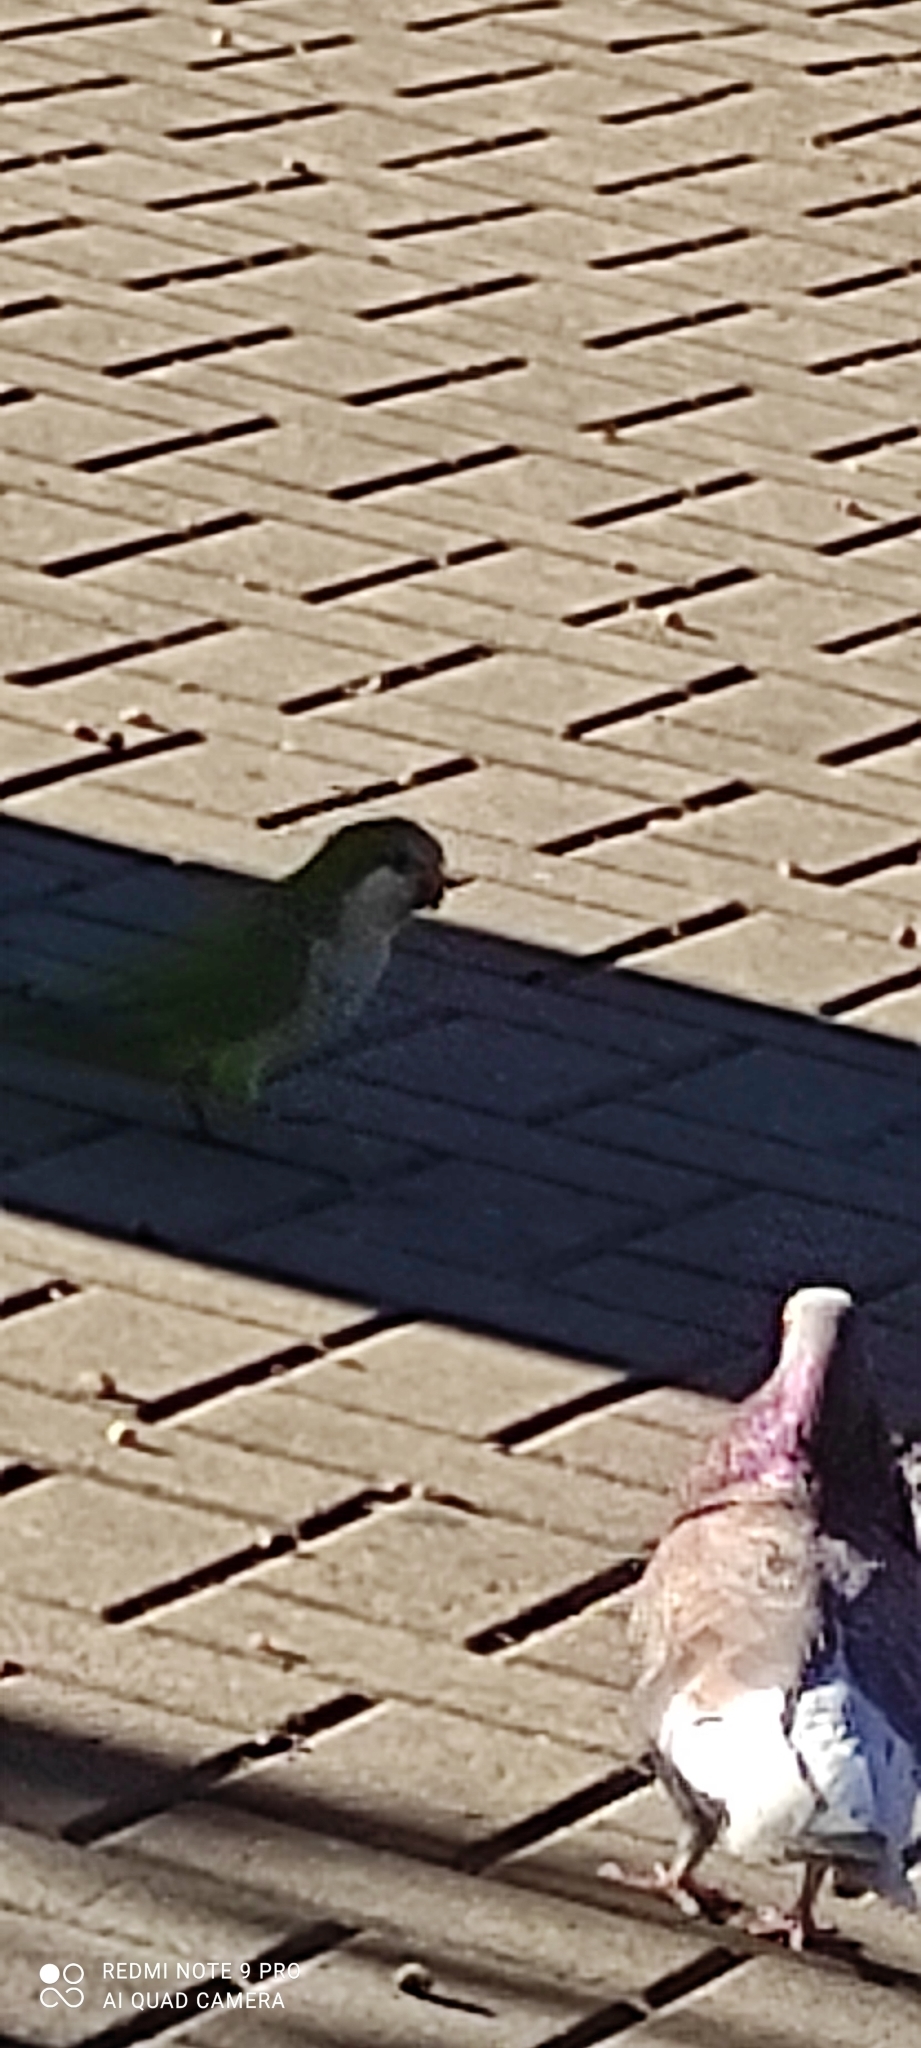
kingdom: Animalia
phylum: Chordata
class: Aves
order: Psittaciformes
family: Psittacidae
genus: Myiopsitta
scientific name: Myiopsitta monachus
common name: Monk parakeet
